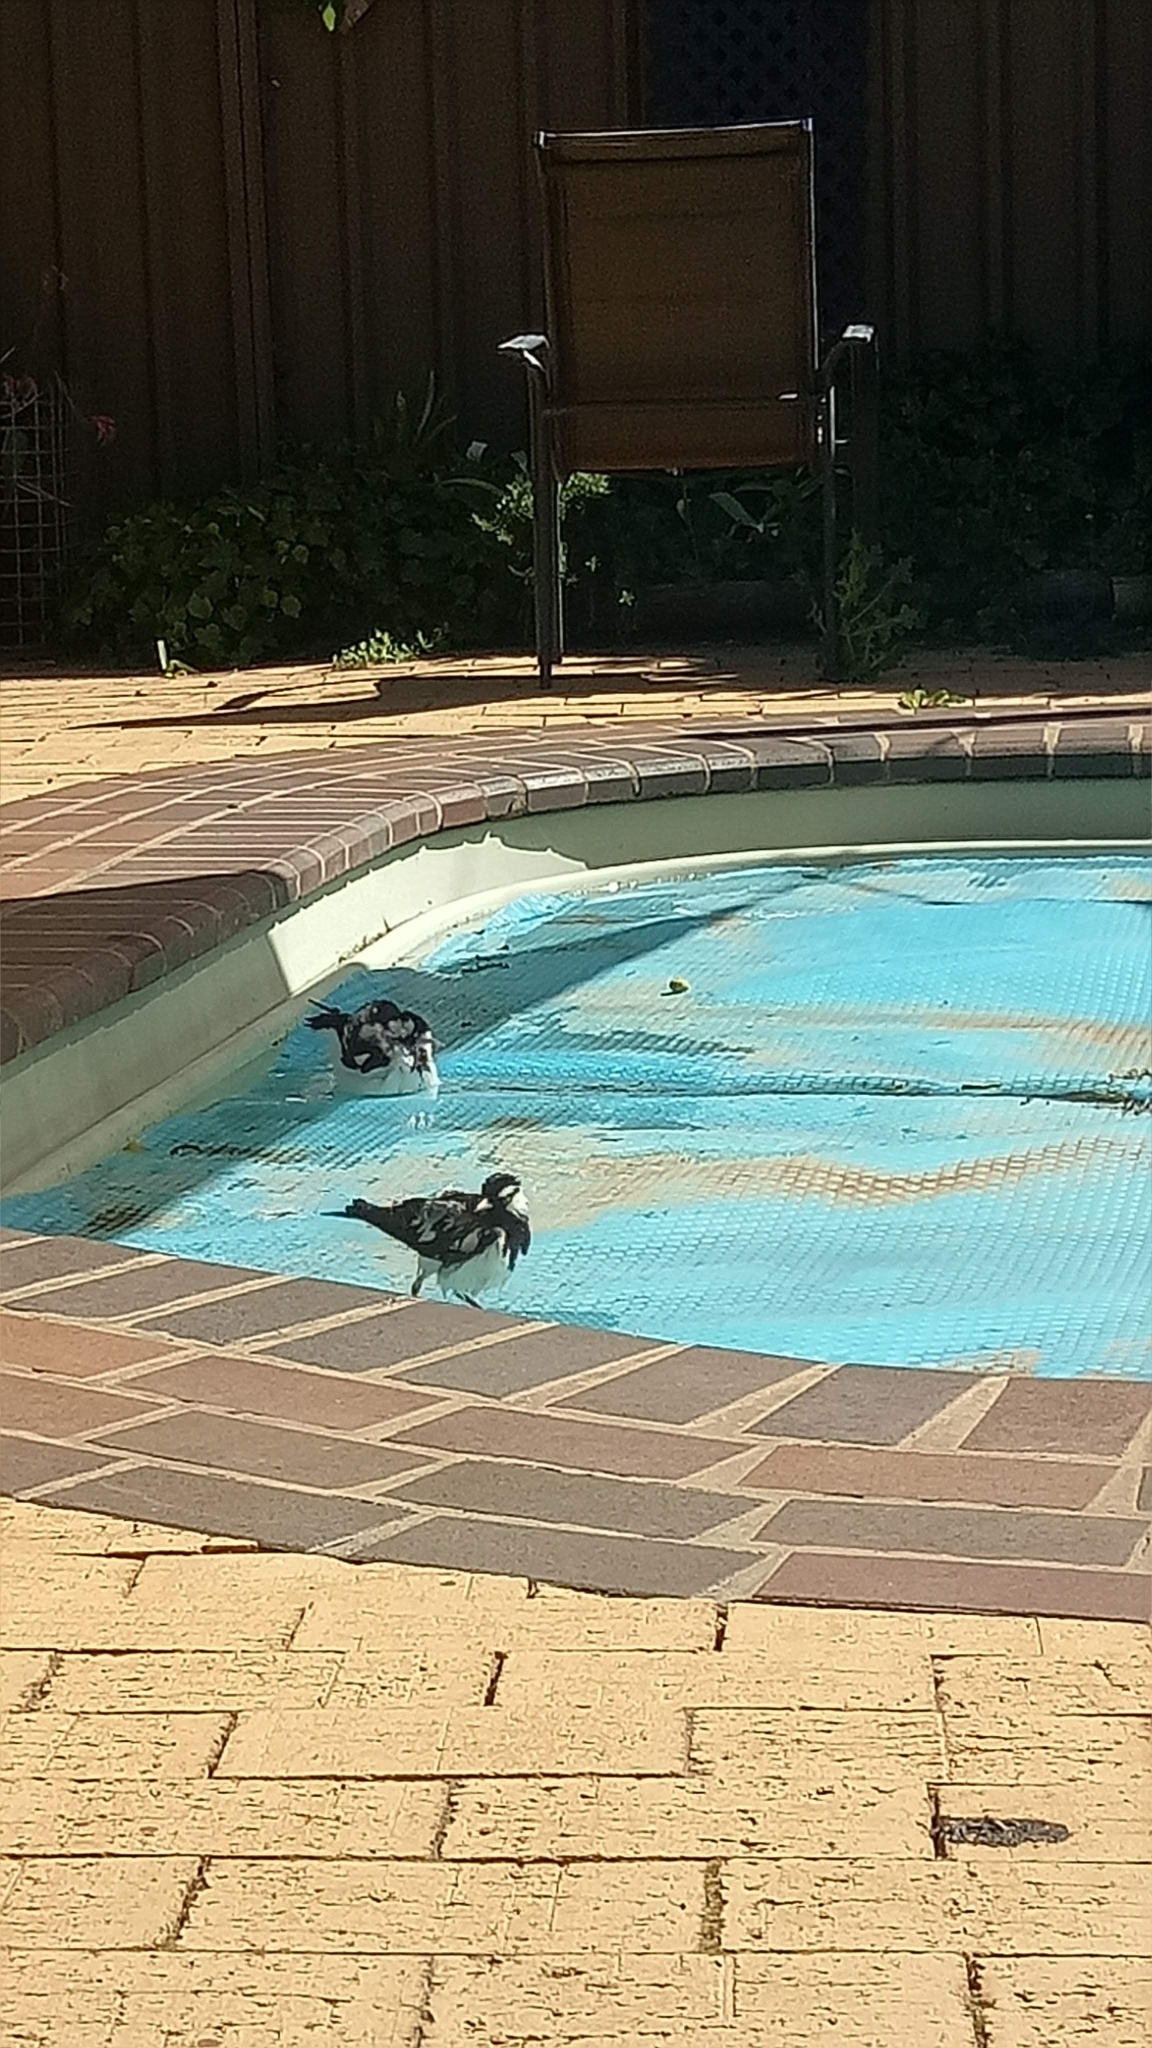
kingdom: Animalia
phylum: Chordata
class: Aves
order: Passeriformes
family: Monarchidae
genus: Grallina
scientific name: Grallina cyanoleuca
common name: Magpie-lark
